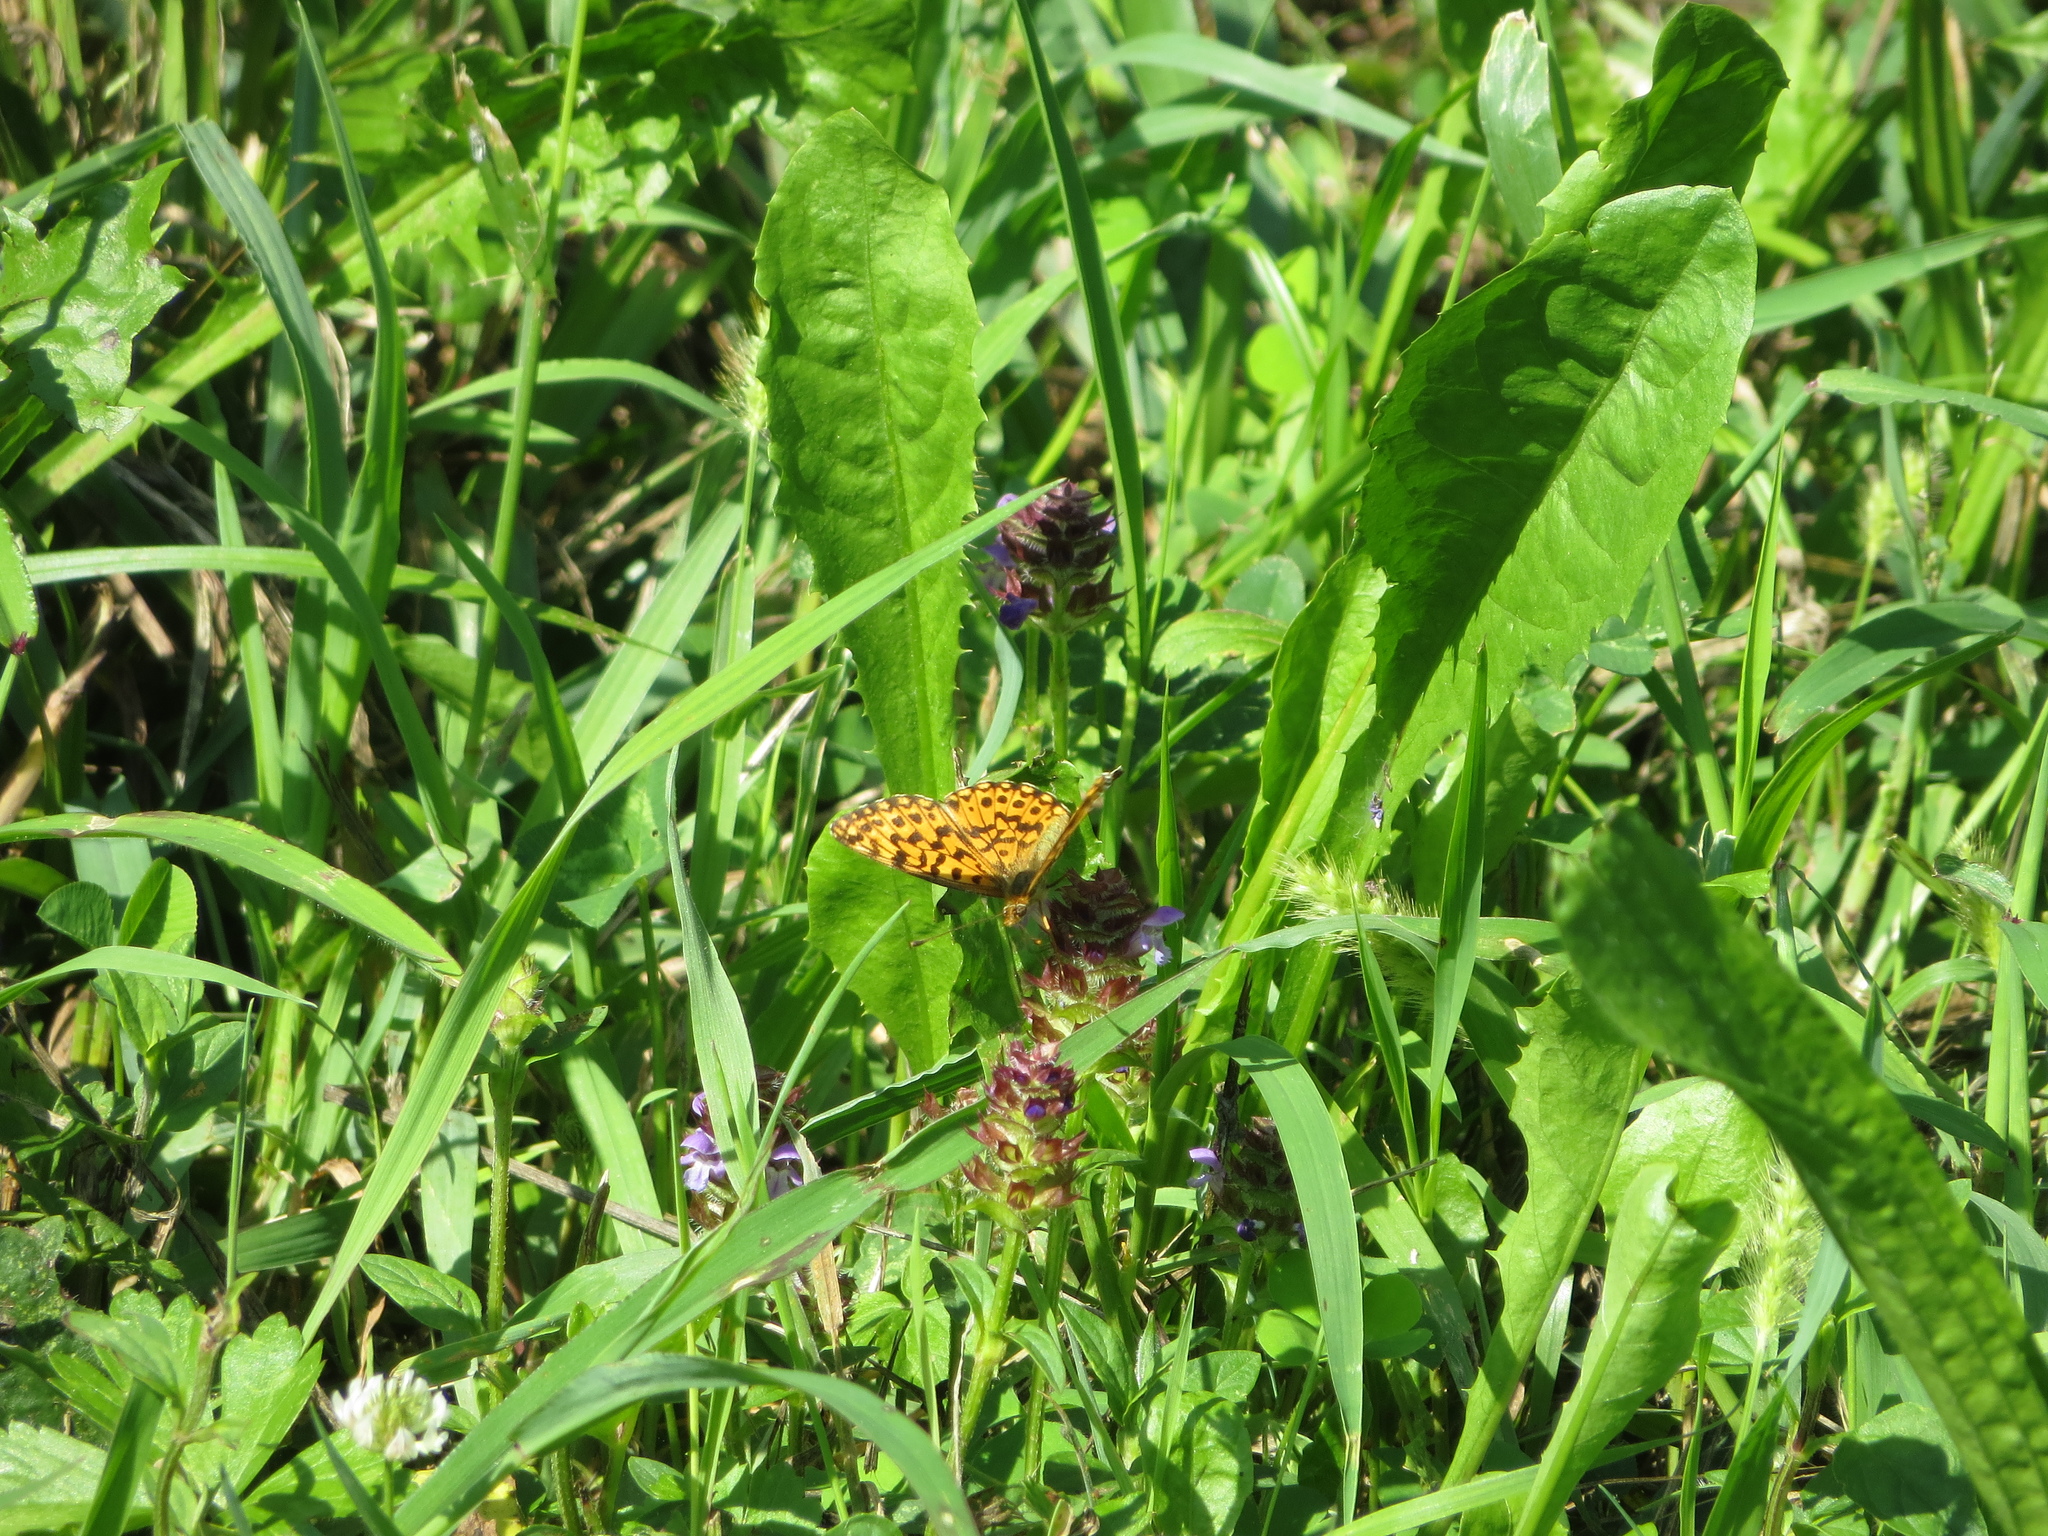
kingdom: Animalia
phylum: Arthropoda
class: Insecta
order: Lepidoptera
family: Nymphalidae
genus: Boloria
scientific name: Boloria dia
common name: Weaver's fritillary
